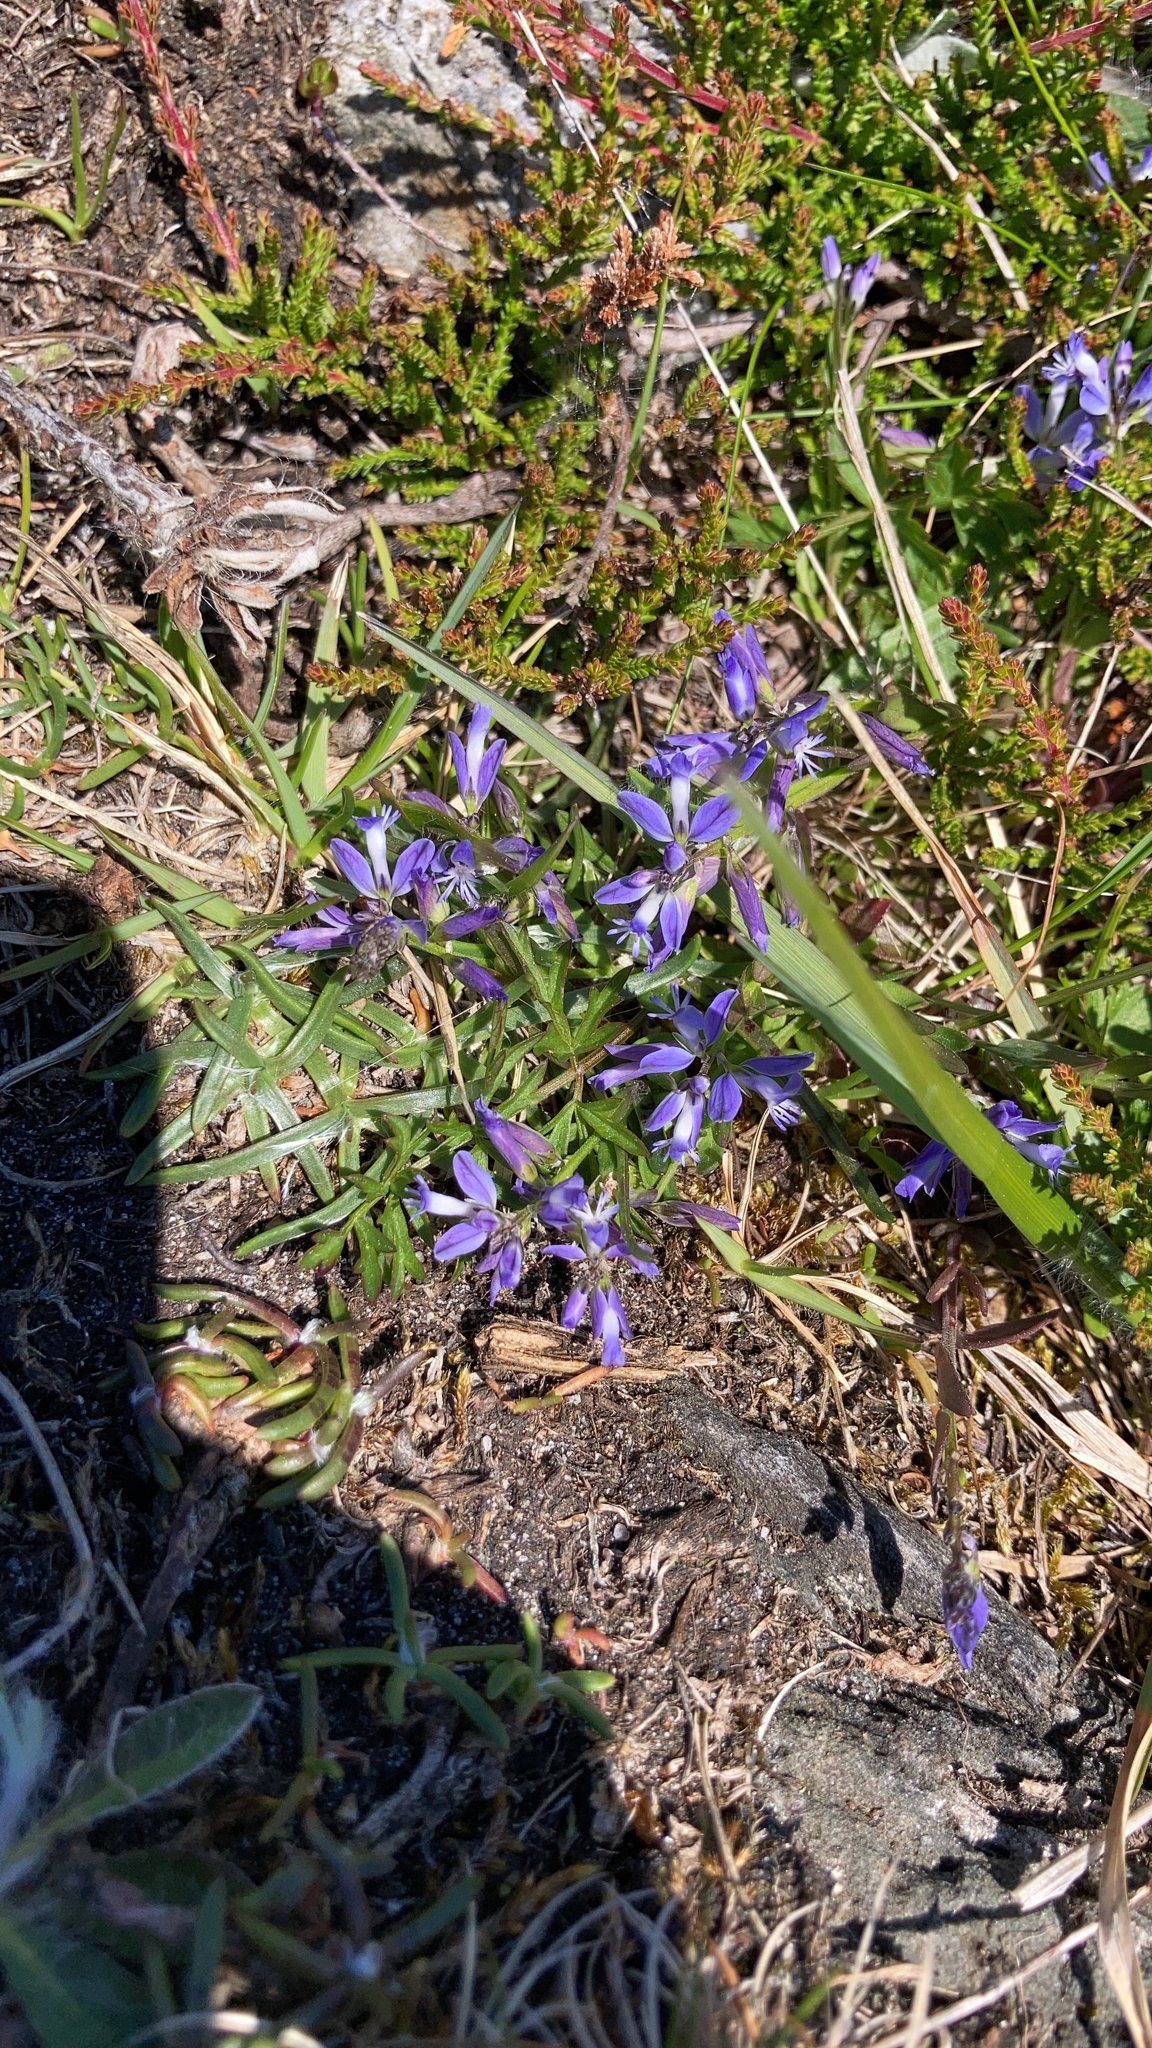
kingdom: Plantae
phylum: Tracheophyta
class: Magnoliopsida
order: Fabales
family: Polygalaceae
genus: Polygala
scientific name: Polygala vulgaris
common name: Common milkwort
